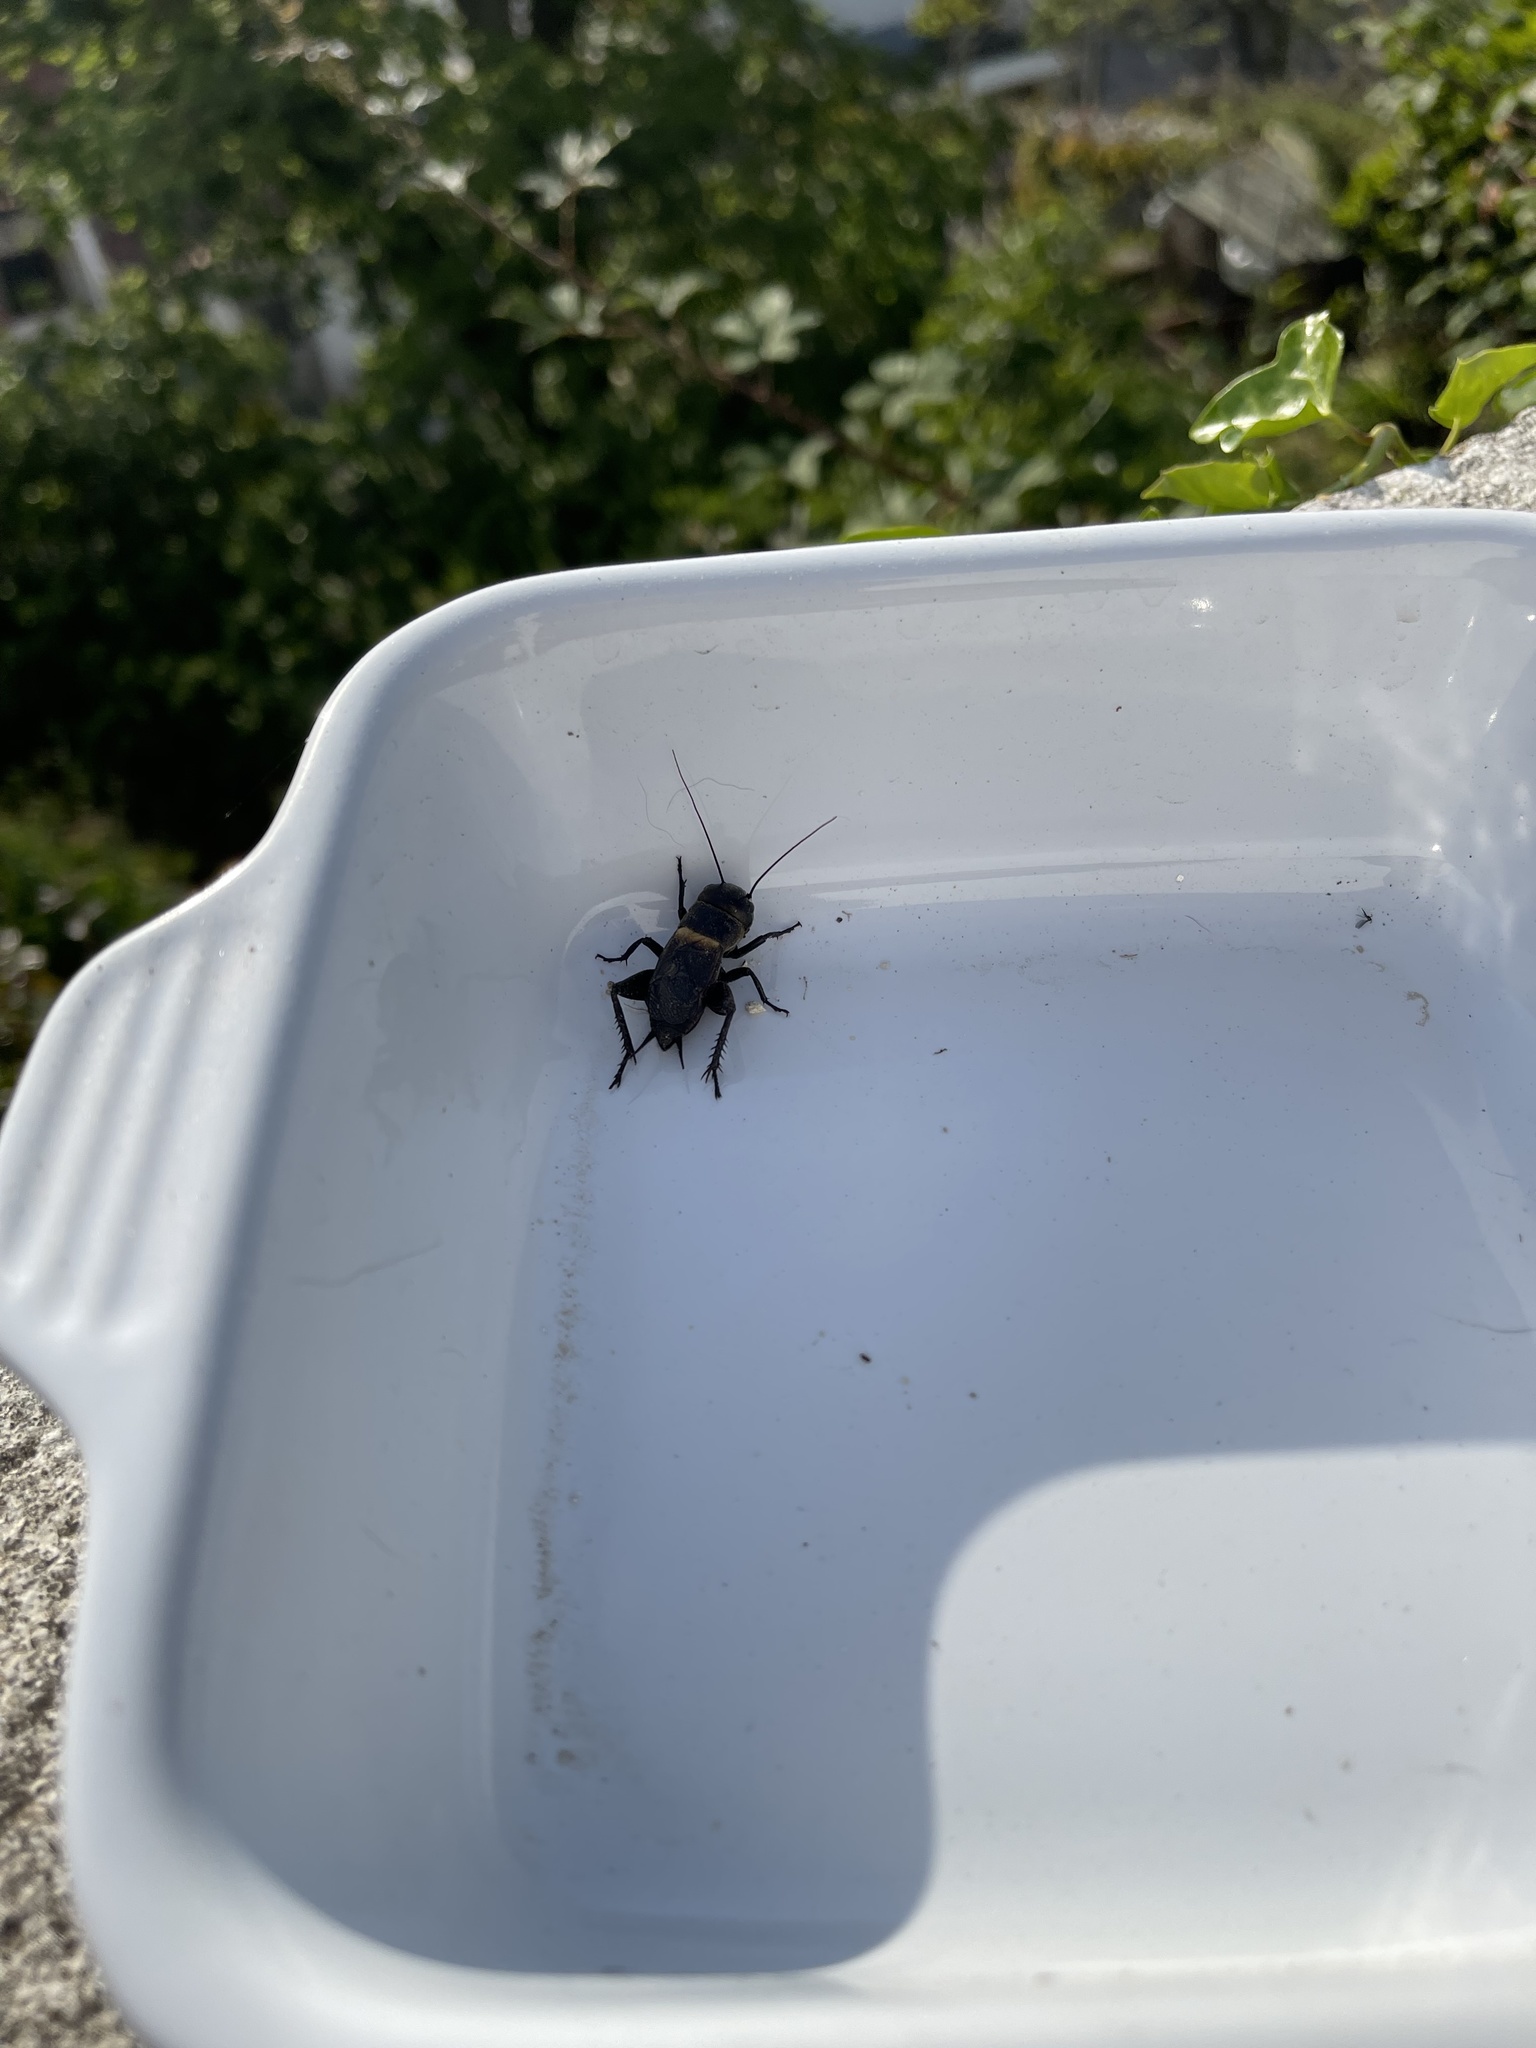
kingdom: Animalia
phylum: Arthropoda
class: Insecta
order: Orthoptera
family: Gryllidae
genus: Gryllus
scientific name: Gryllus campestris
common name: Field cricket
